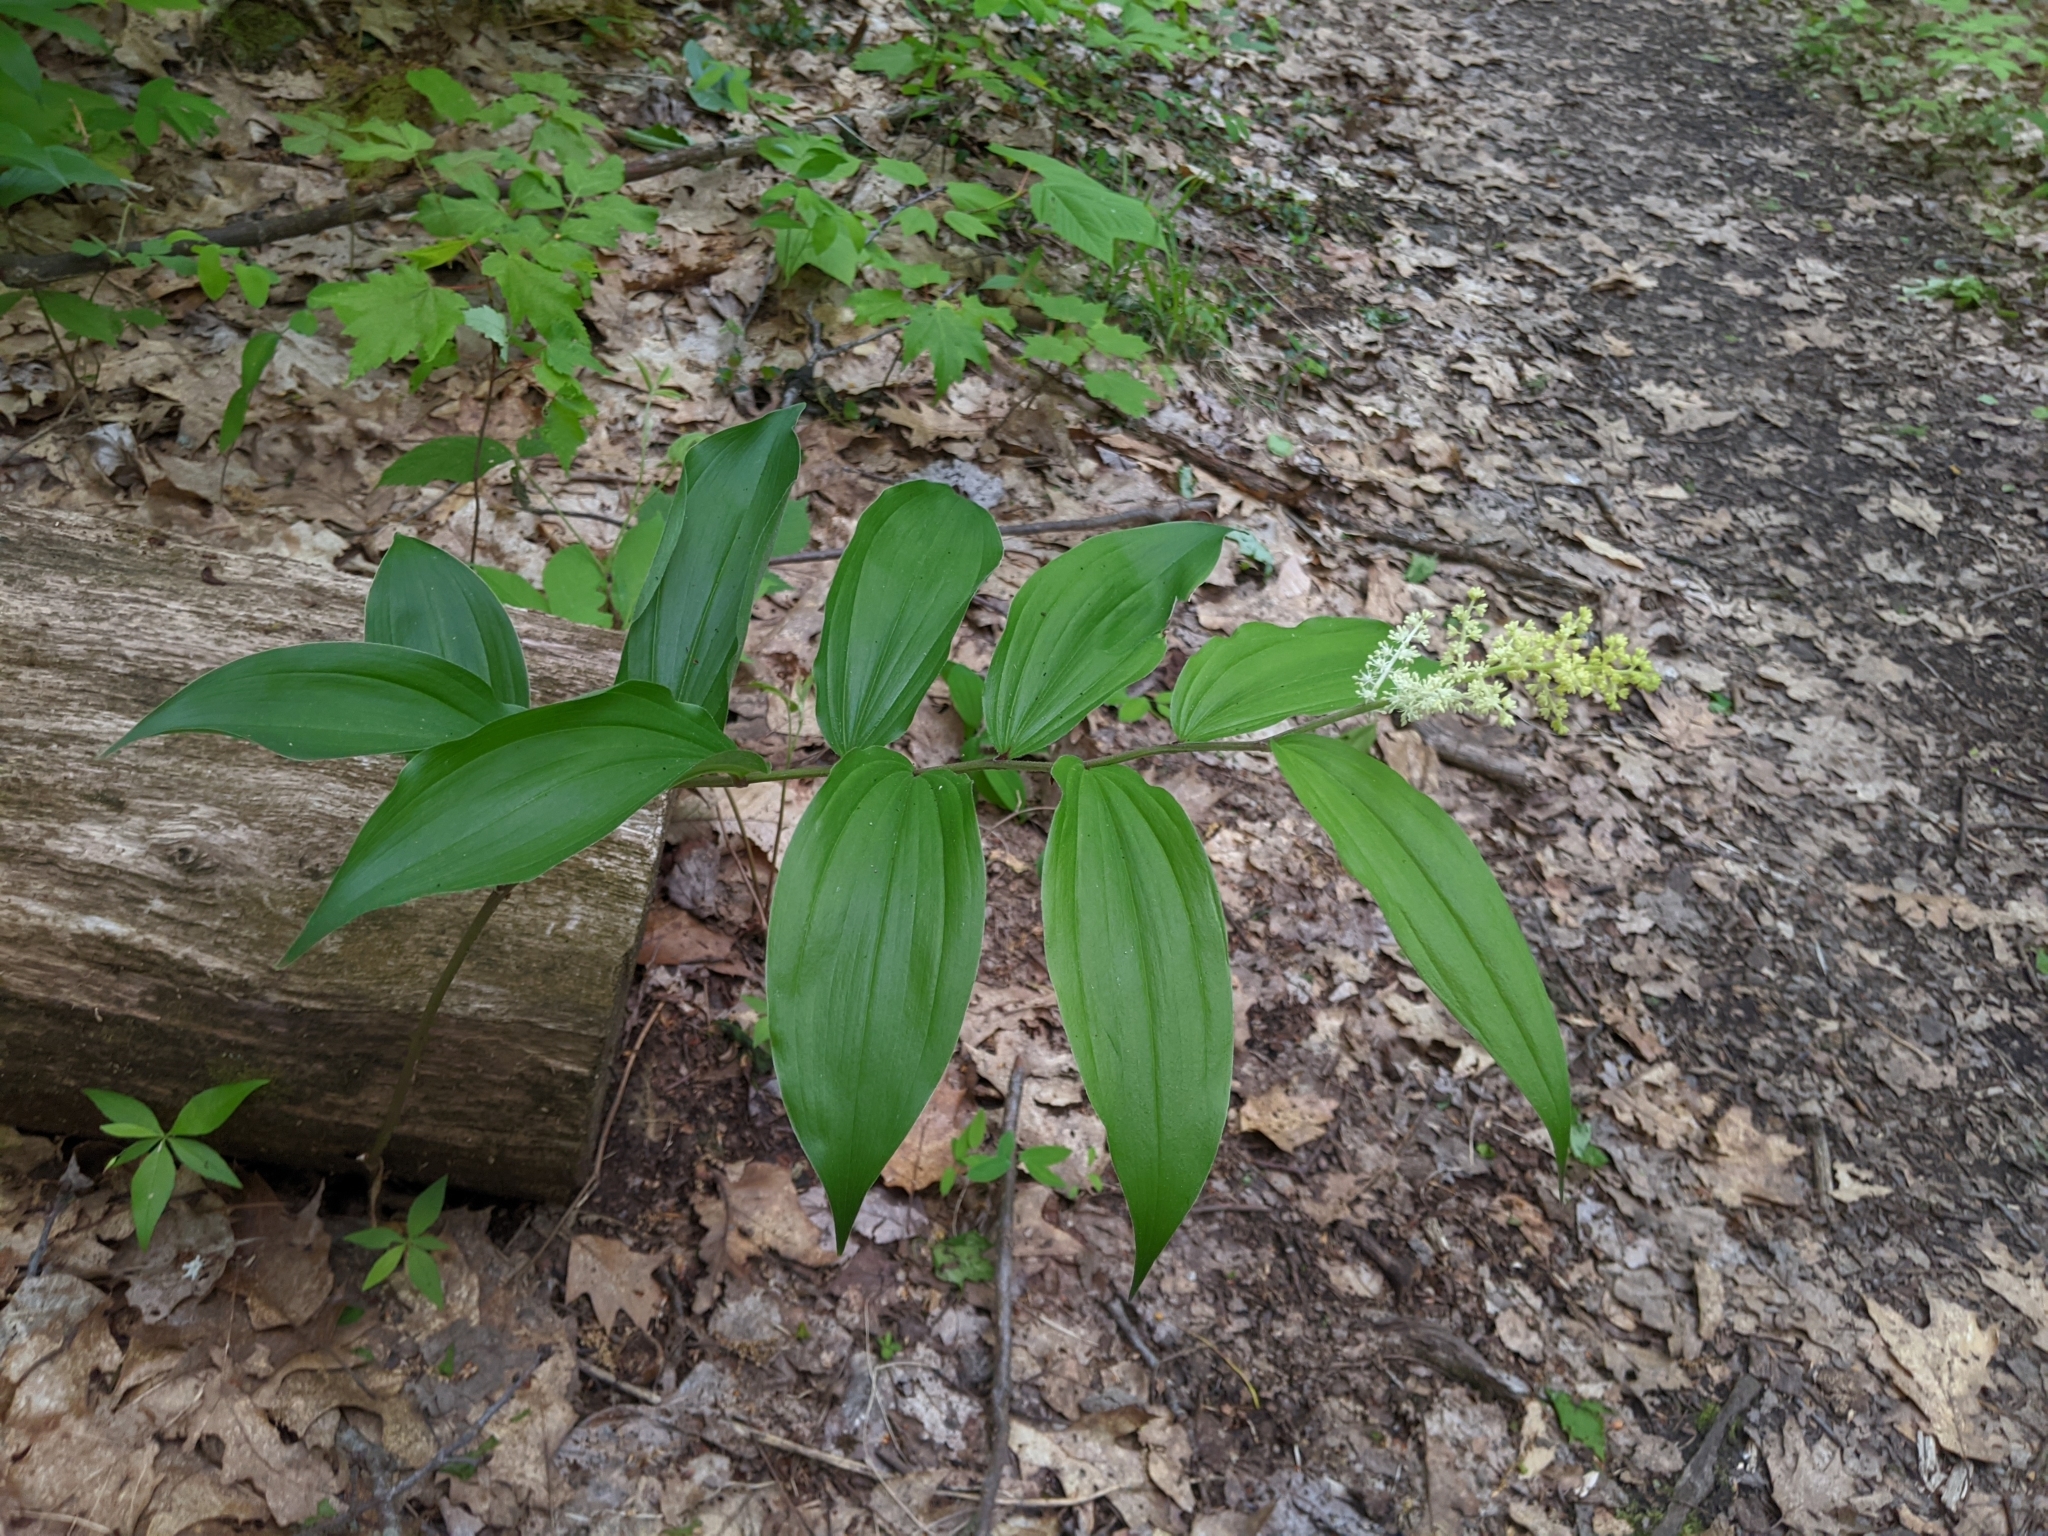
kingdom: Plantae
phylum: Tracheophyta
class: Liliopsida
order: Asparagales
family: Asparagaceae
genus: Maianthemum
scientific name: Maianthemum racemosum
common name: False spikenard
